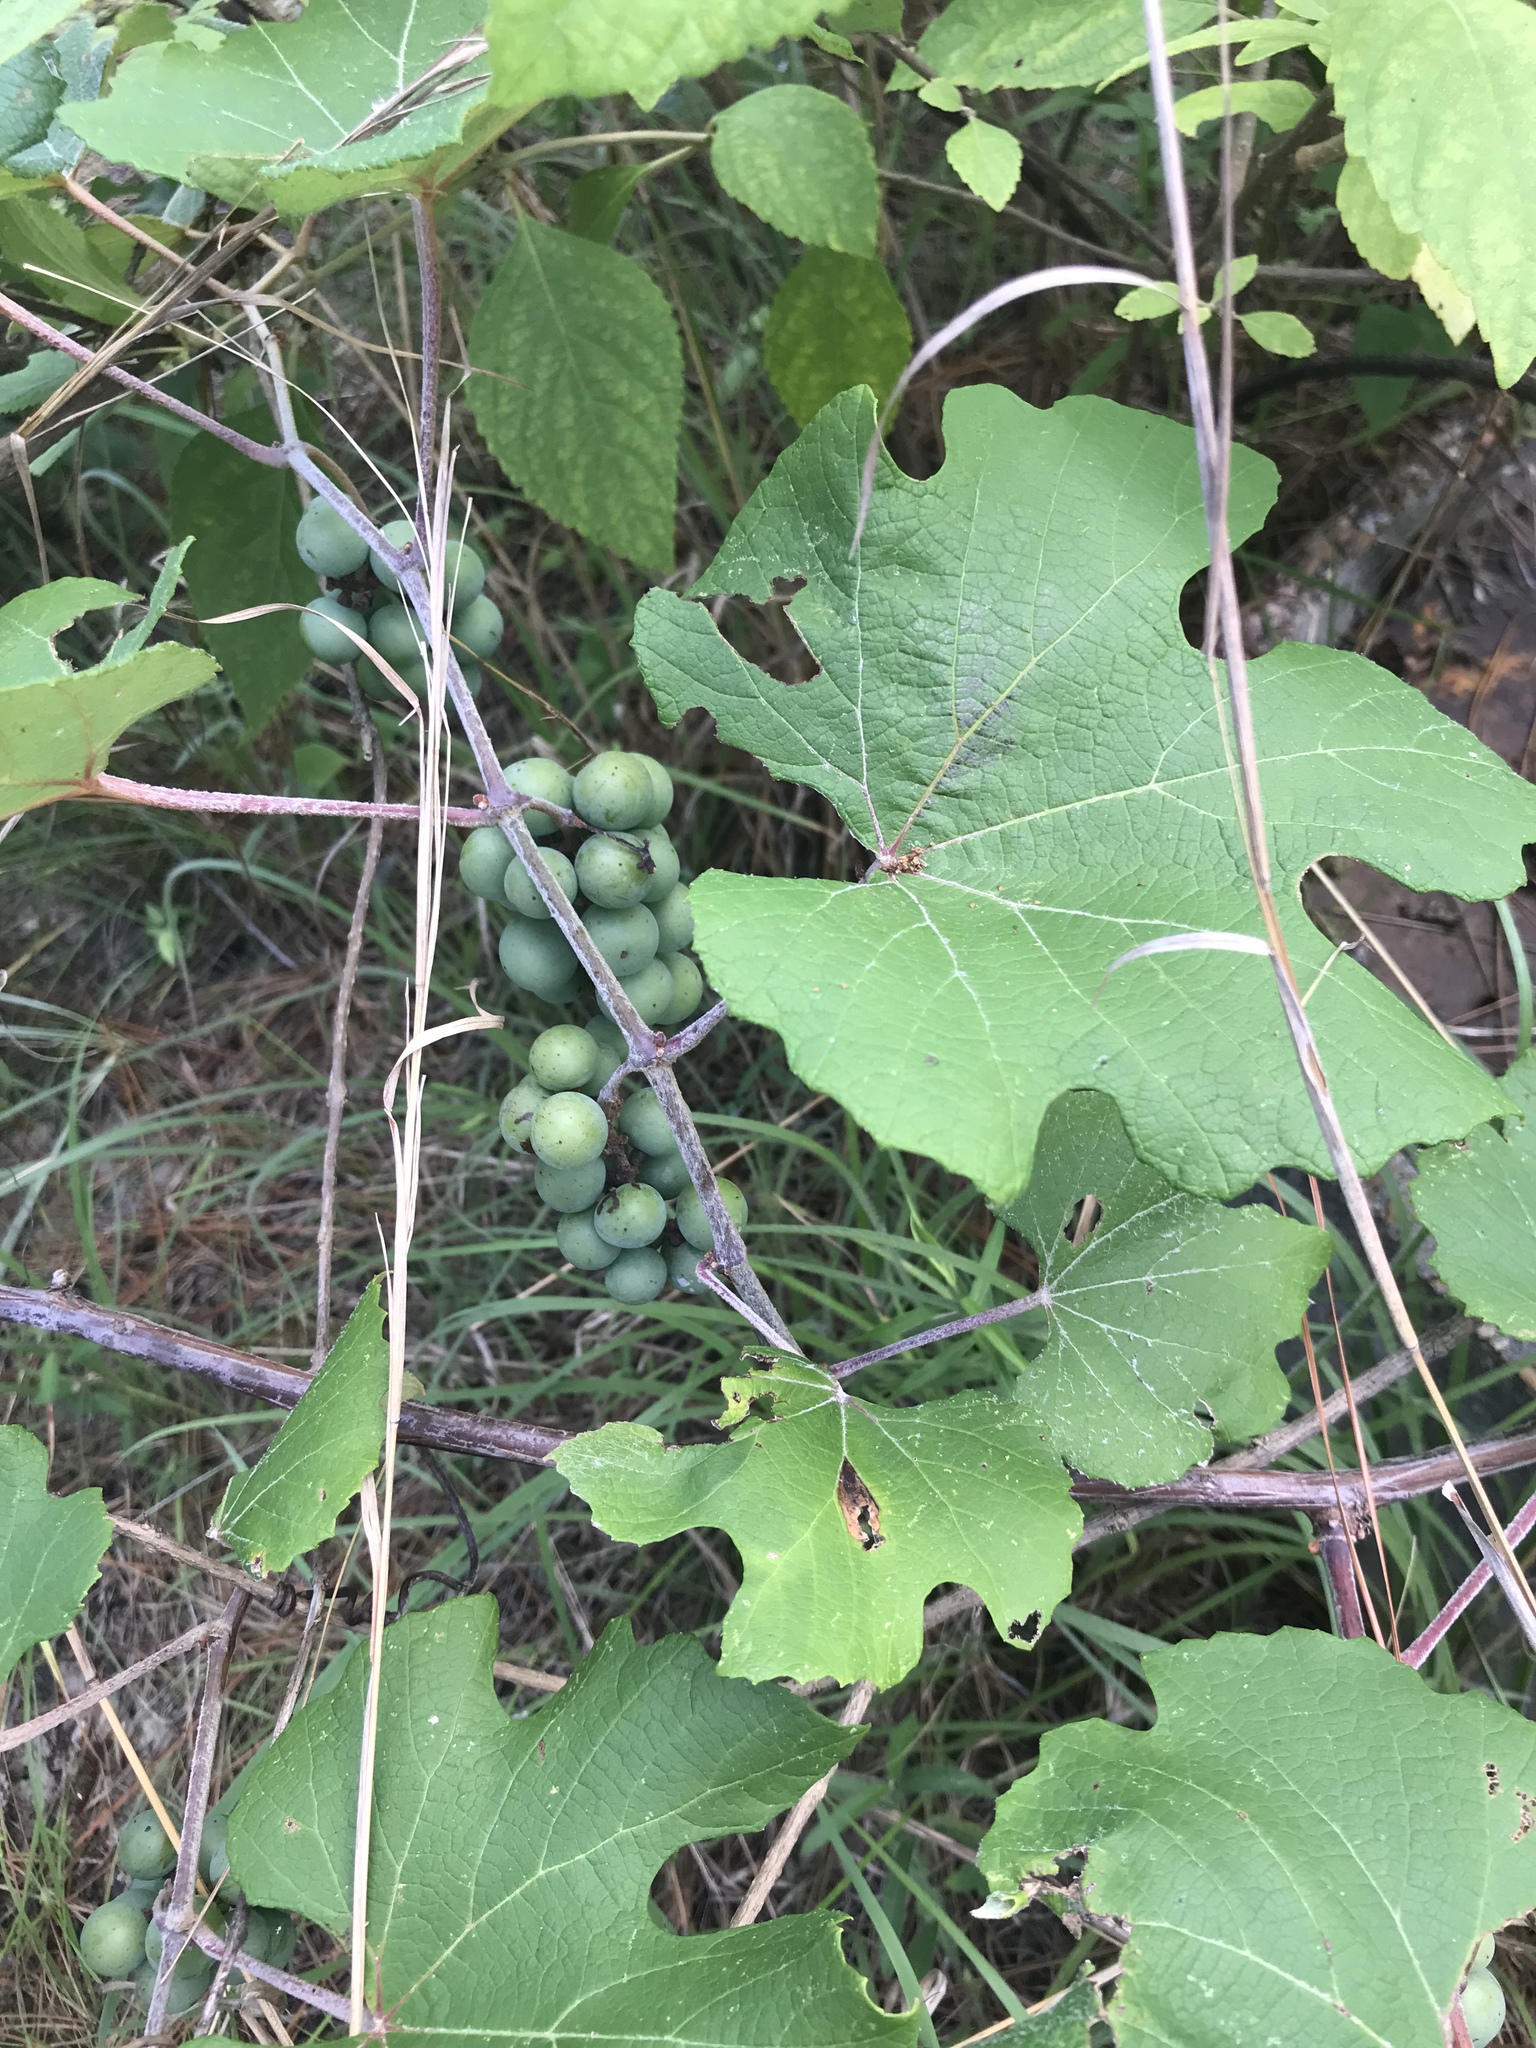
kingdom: Plantae
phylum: Tracheophyta
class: Magnoliopsida
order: Vitales
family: Vitaceae
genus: Vitis
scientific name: Vitis aestivalis
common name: Pigeon grape
